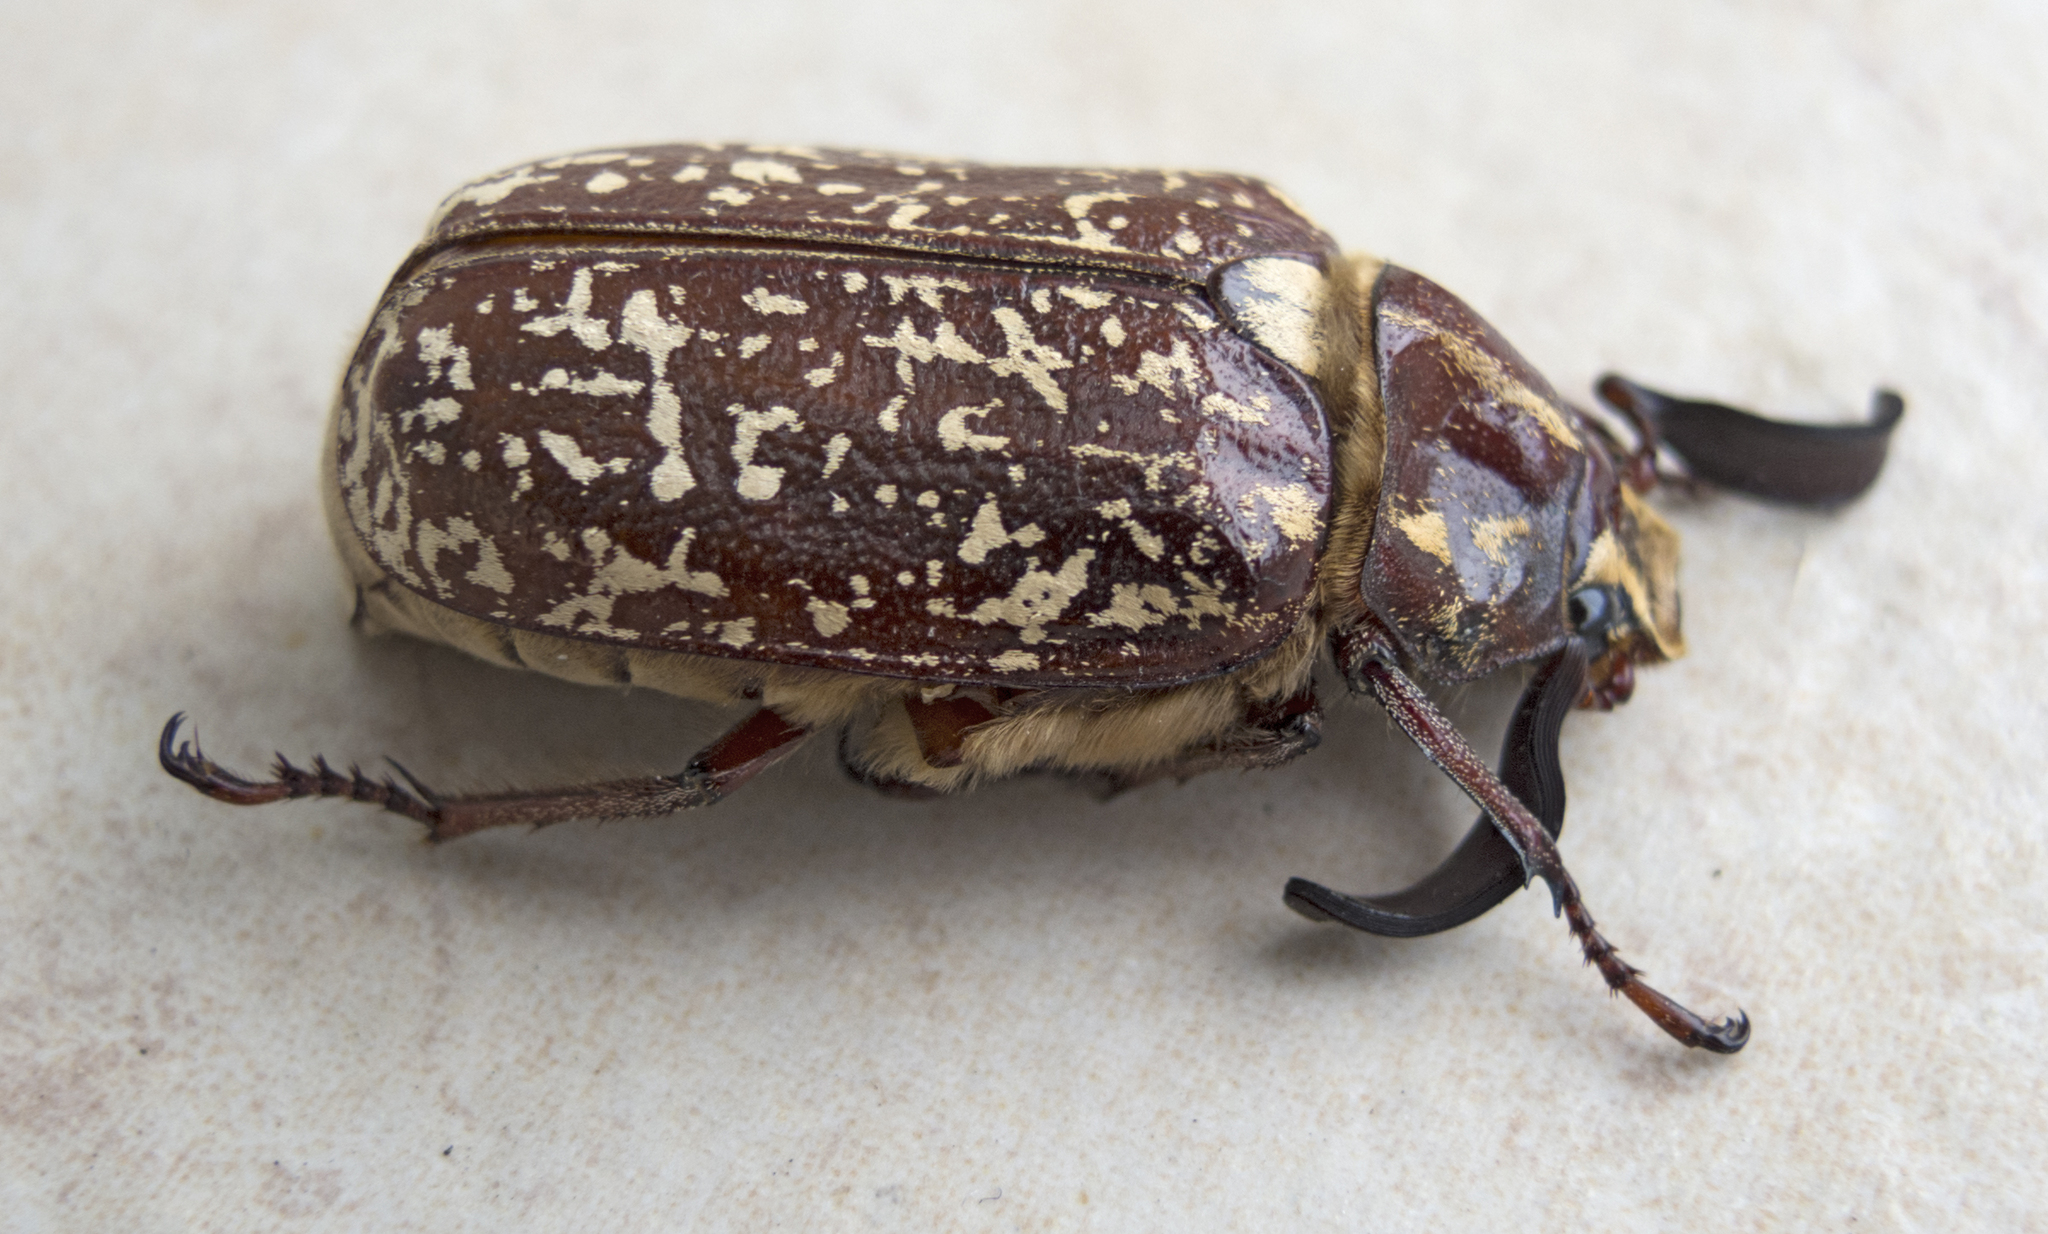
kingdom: Animalia
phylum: Arthropoda
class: Insecta
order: Coleoptera
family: Scarabaeidae
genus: Polyphylla
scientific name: Polyphylla fullo
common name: Pine chafer
